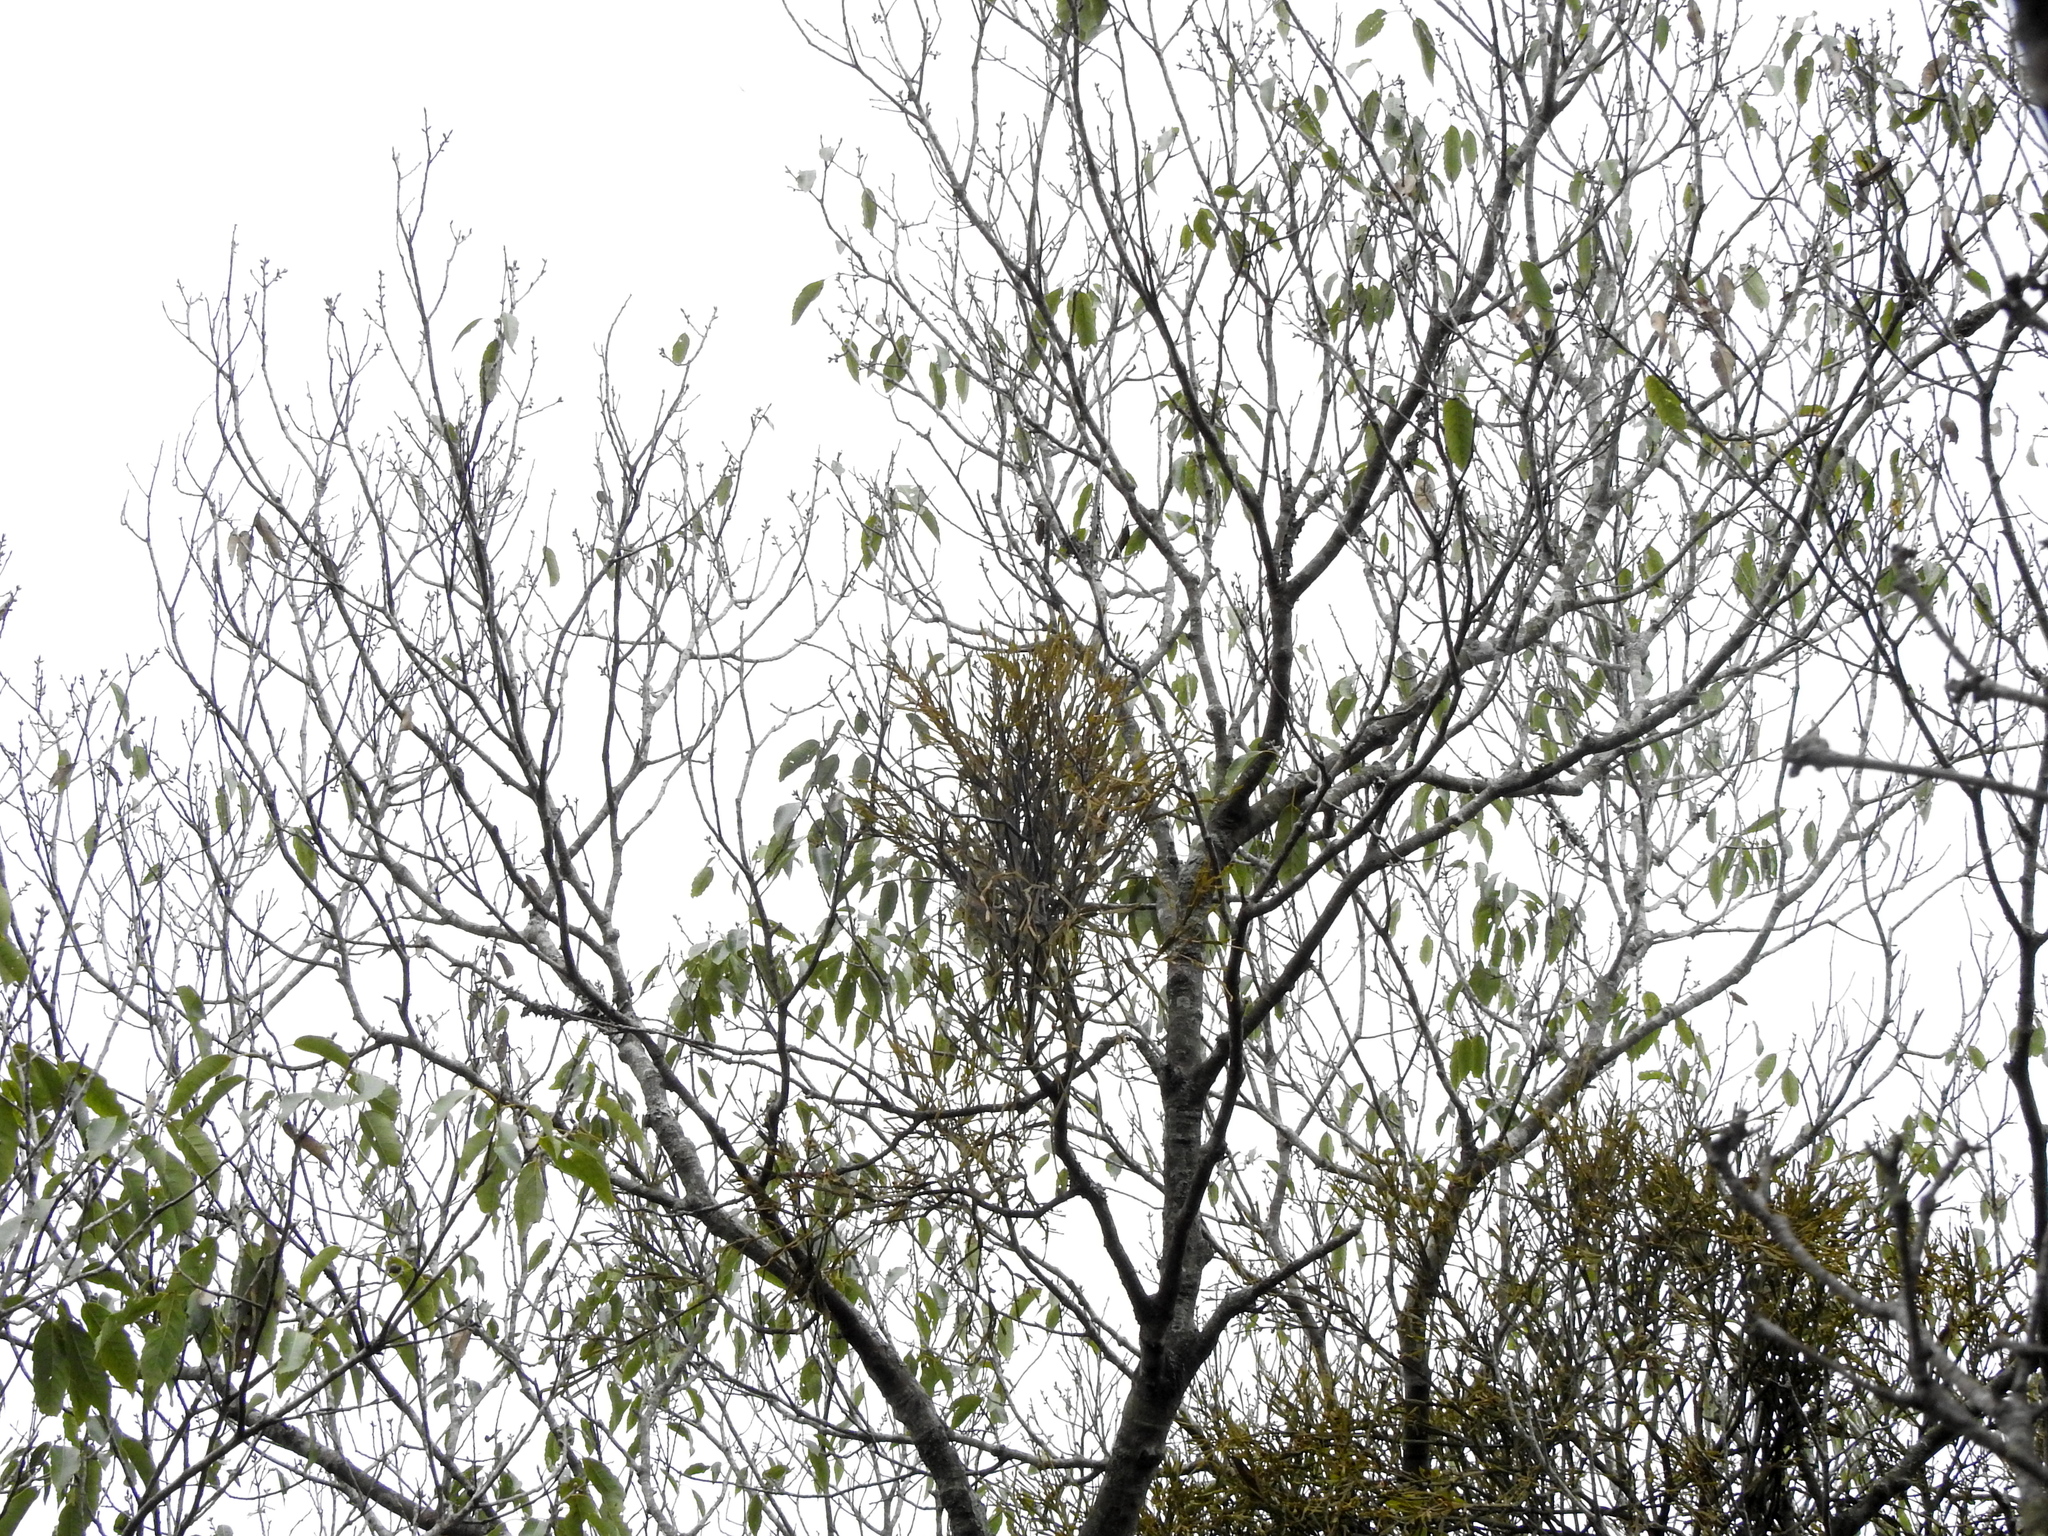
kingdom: Plantae
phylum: Tracheophyta
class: Magnoliopsida
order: Santalales
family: Viscaceae
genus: Viscum
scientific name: Viscum liquidambaricola
